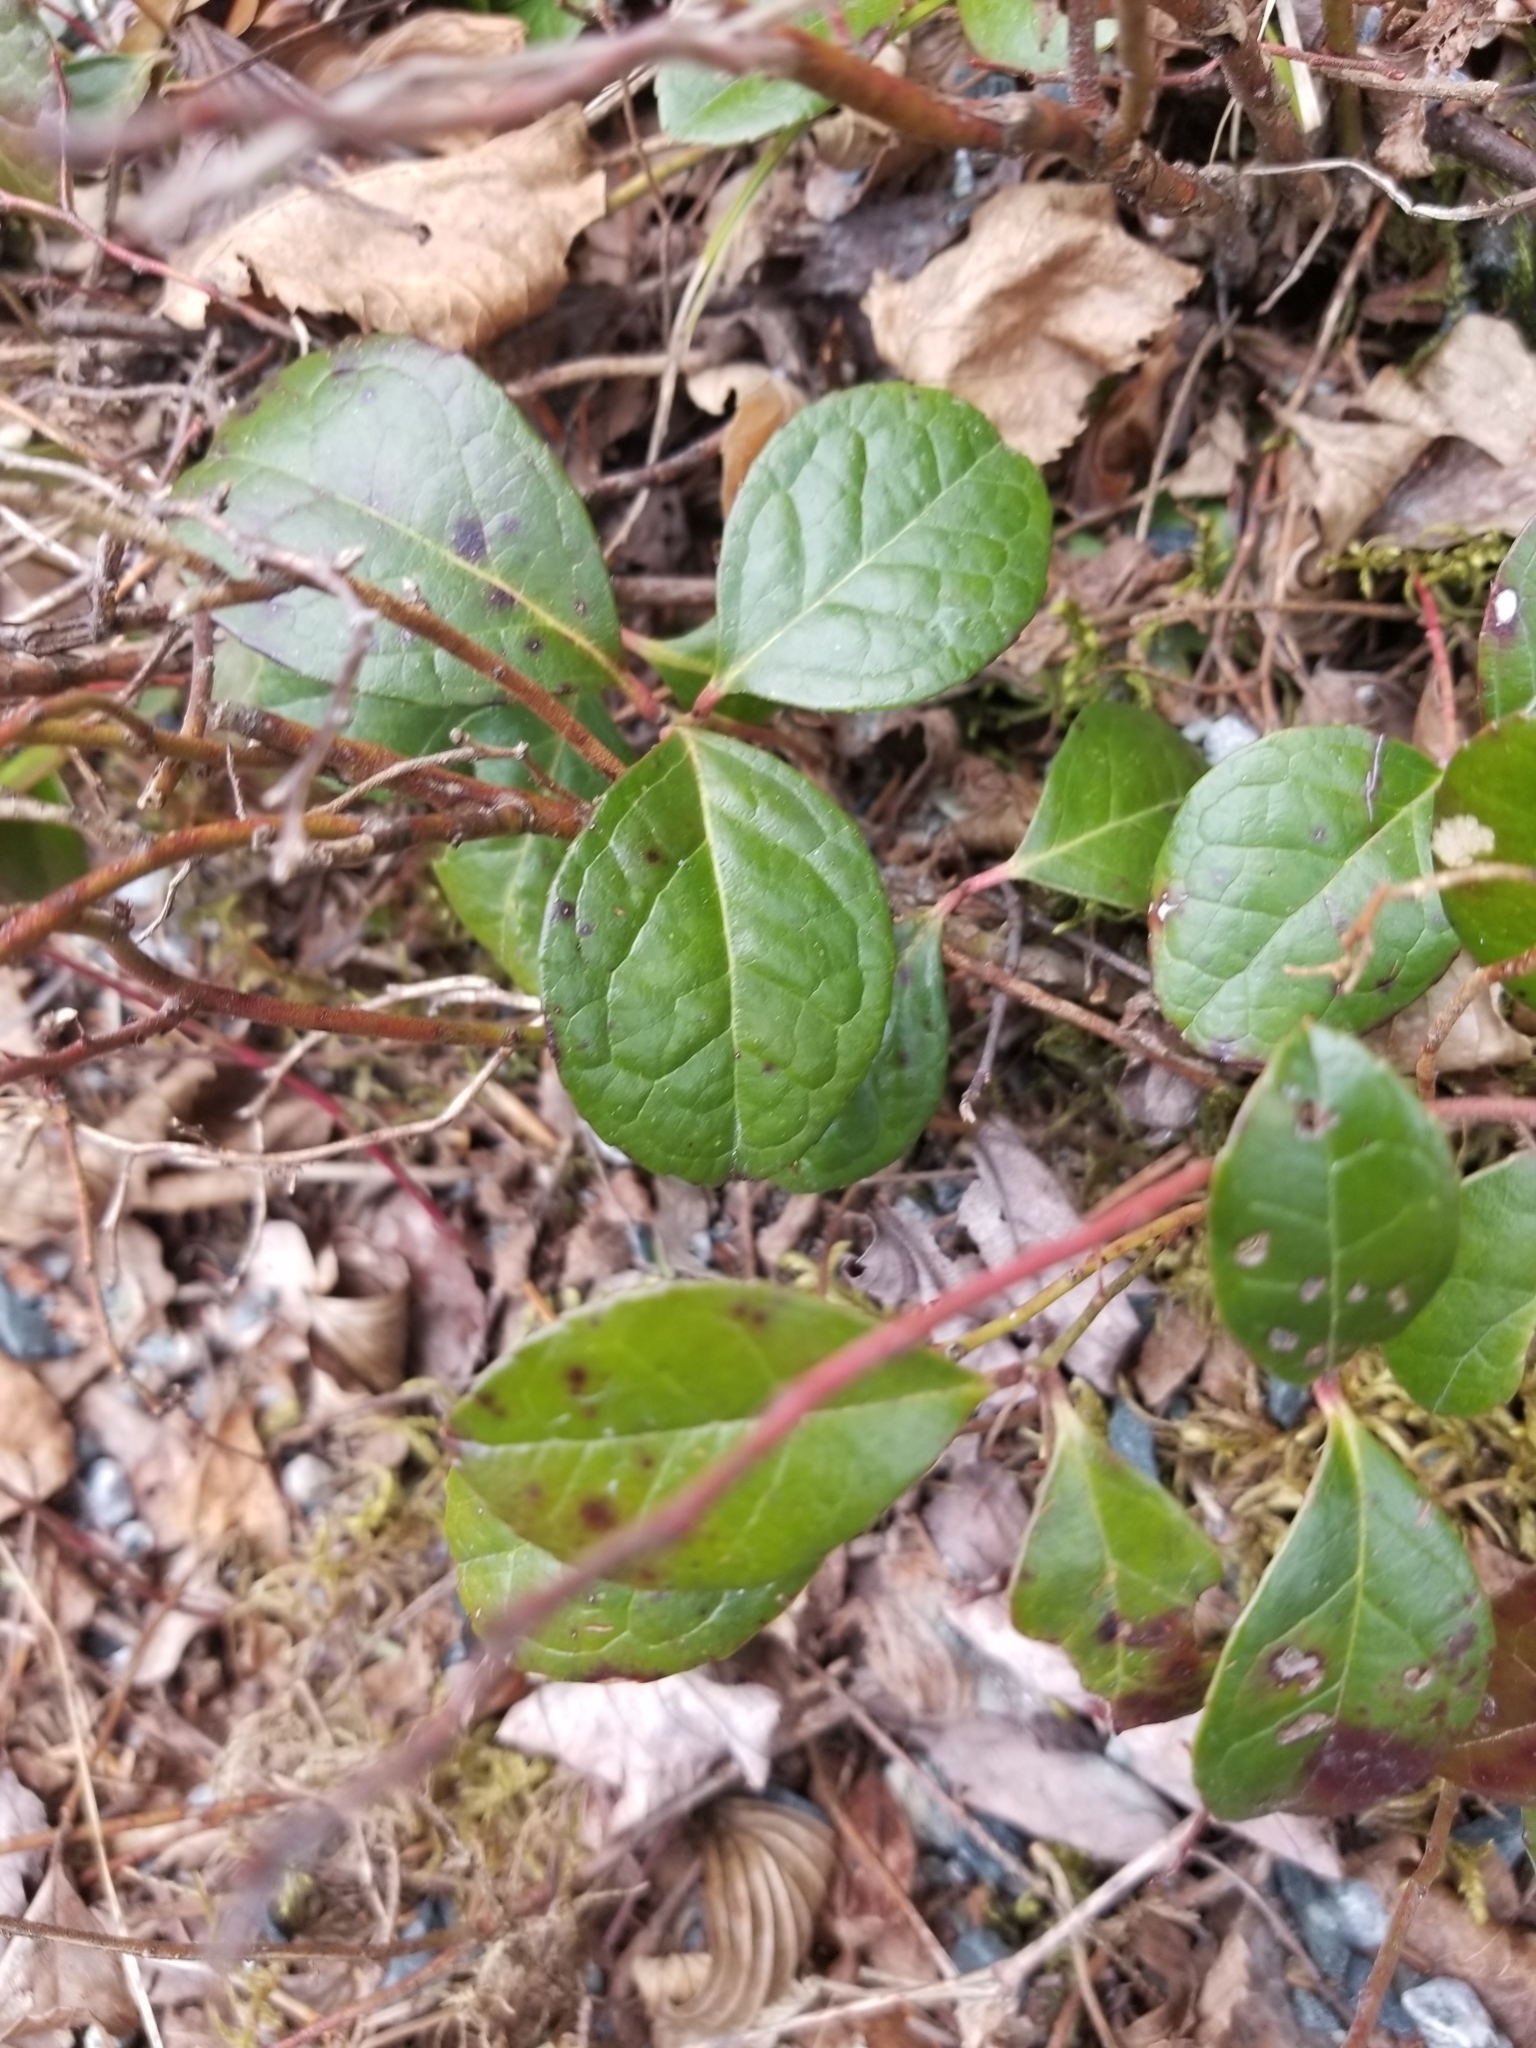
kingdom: Plantae
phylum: Tracheophyta
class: Magnoliopsida
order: Ericales
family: Ericaceae
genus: Gaultheria
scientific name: Gaultheria procumbens
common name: Checkerberry
